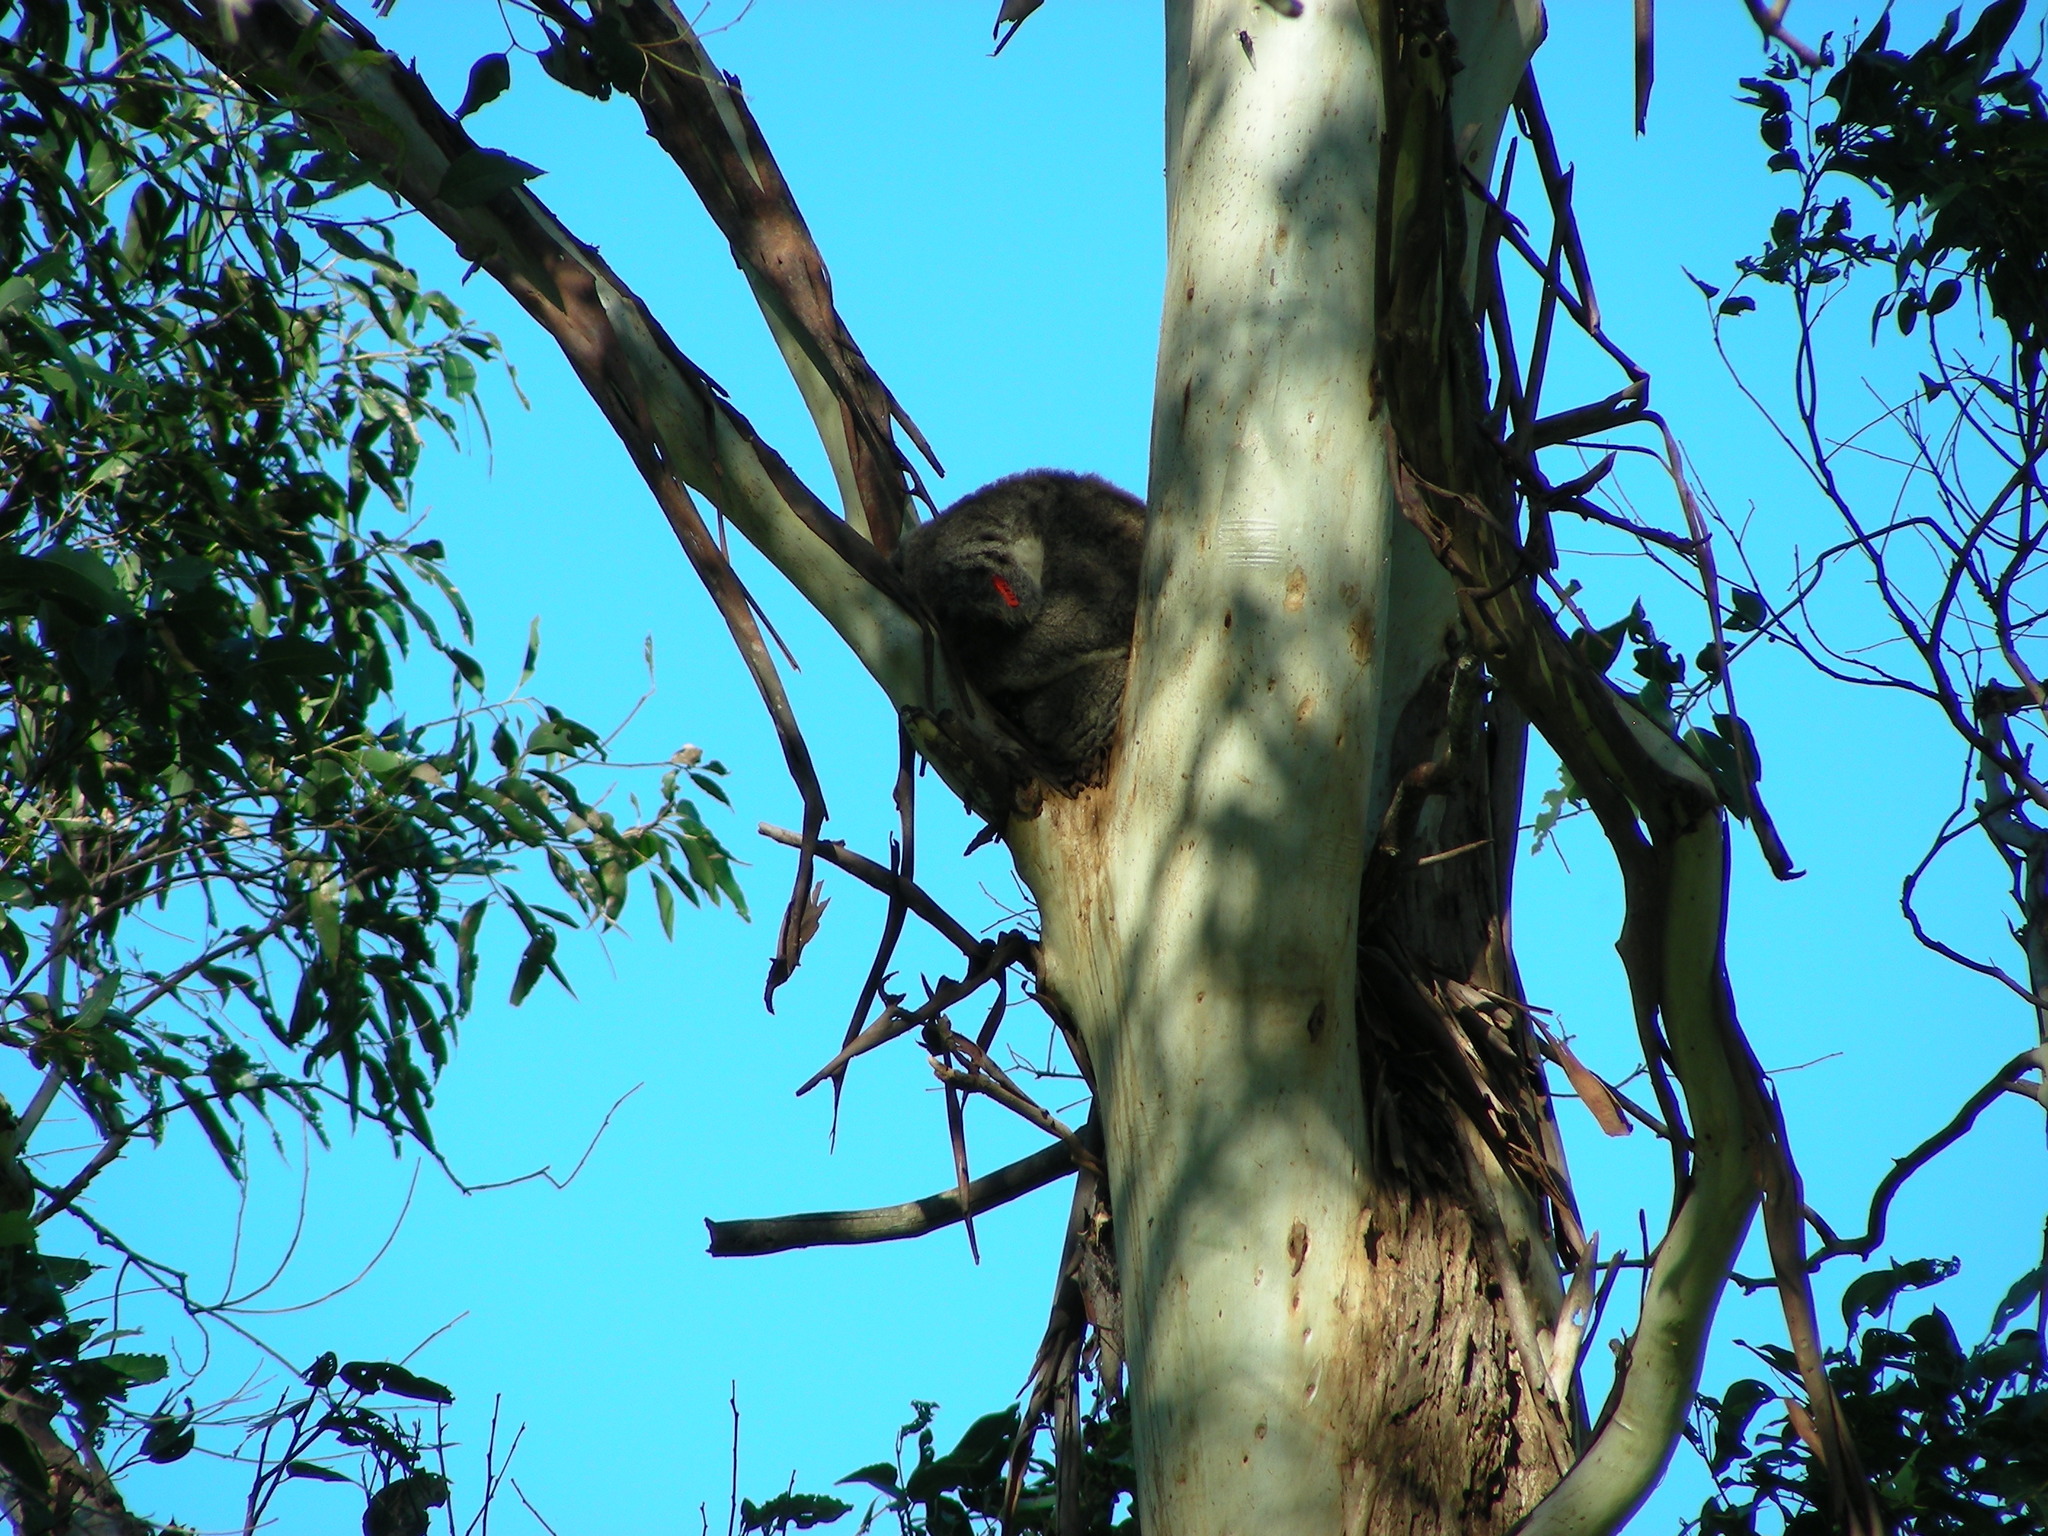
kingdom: Animalia
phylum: Chordata
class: Mammalia
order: Diprotodontia
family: Phascolarctidae
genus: Phascolarctos
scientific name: Phascolarctos cinereus
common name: Koala
